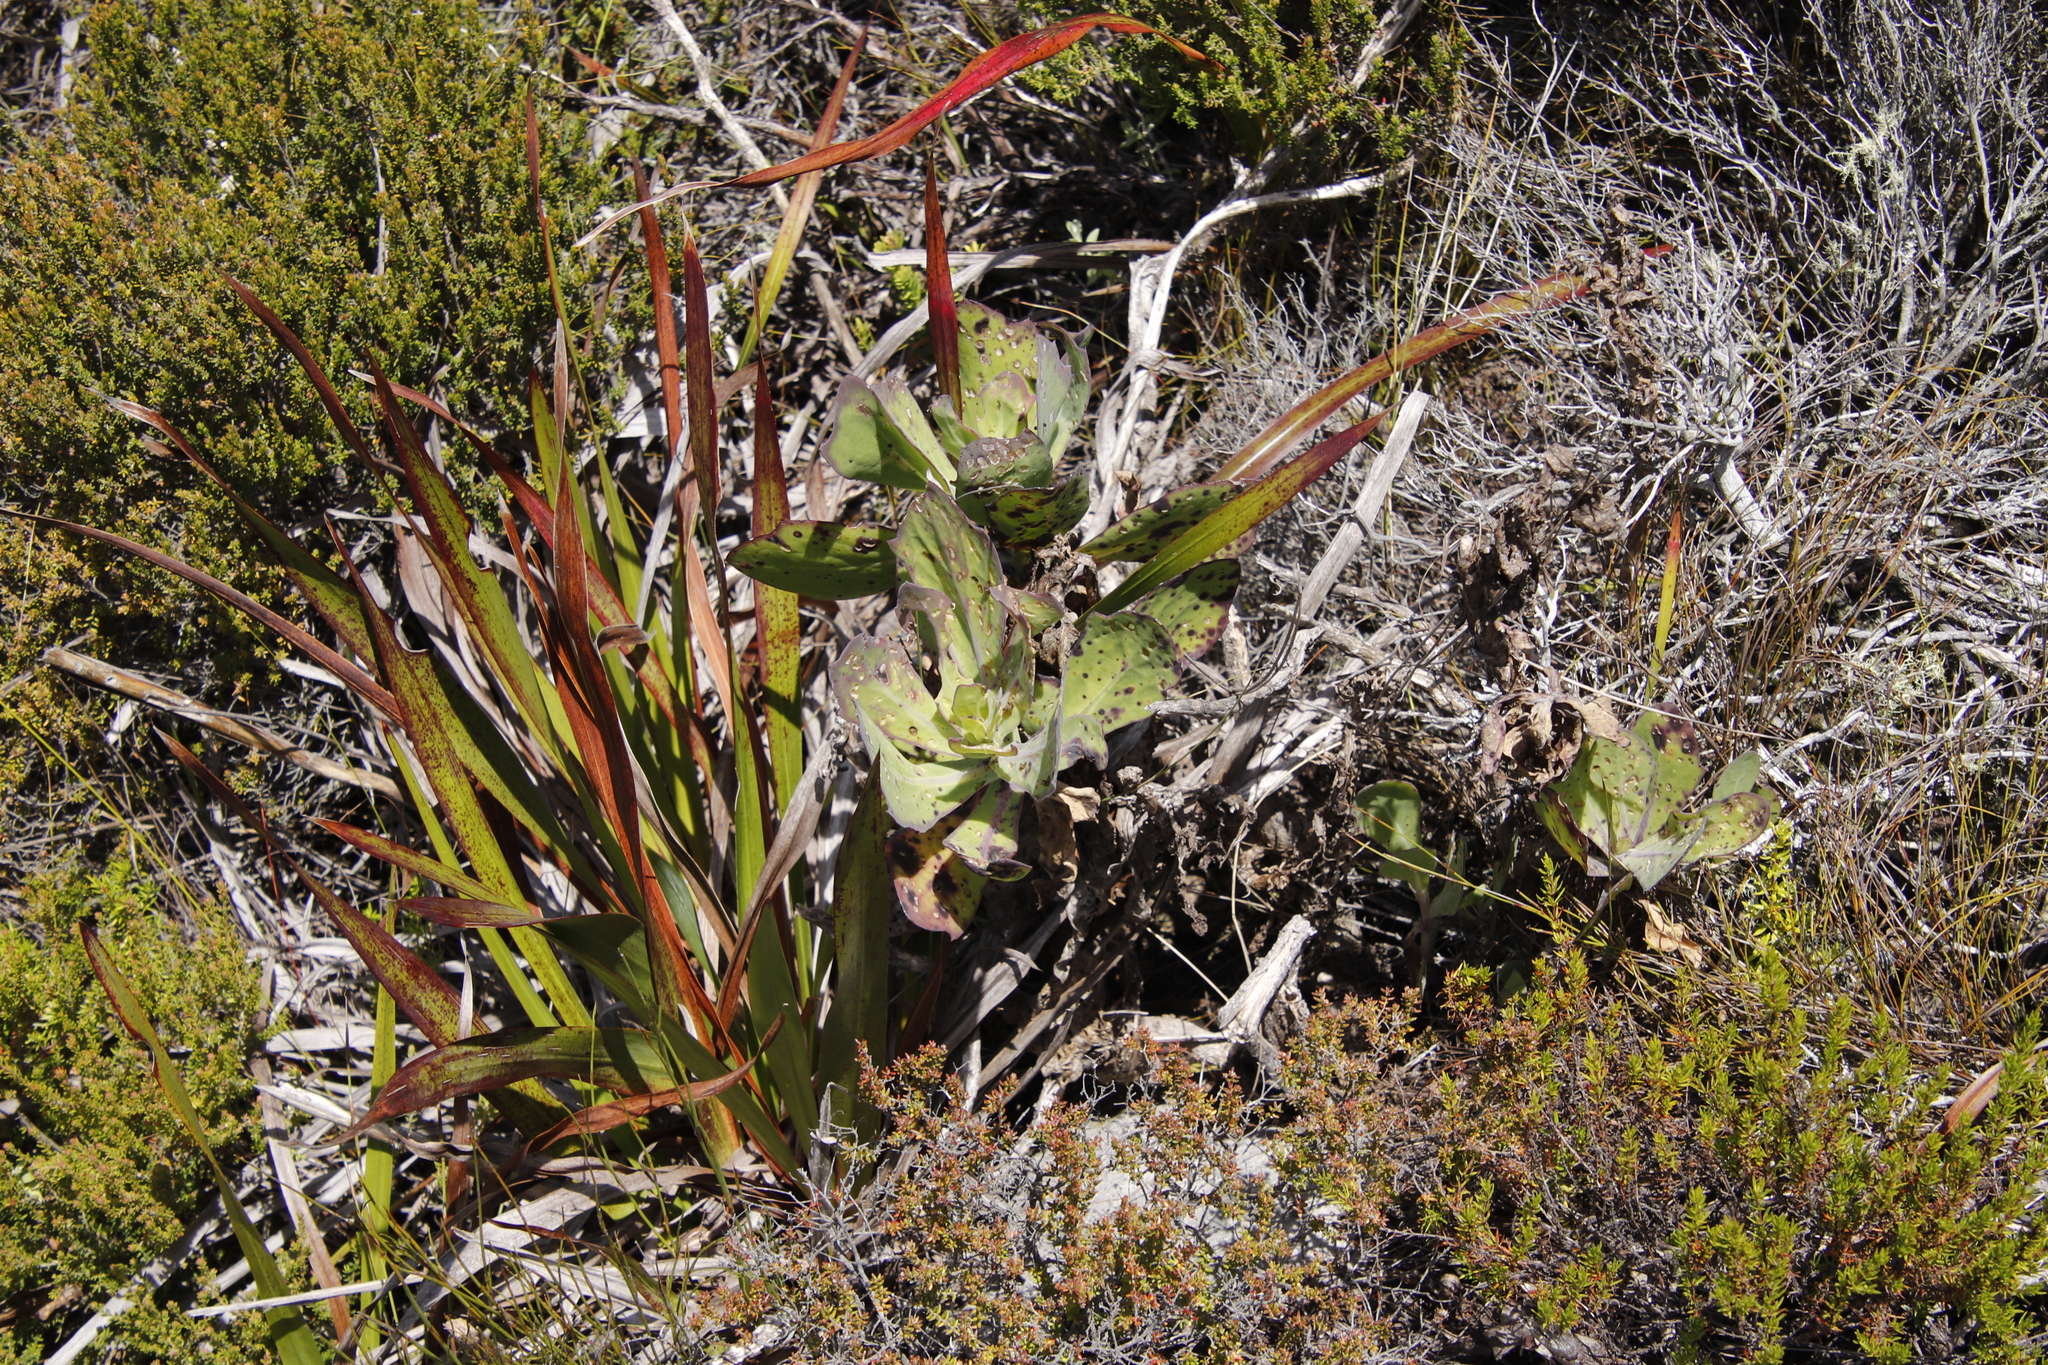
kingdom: Plantae
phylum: Tracheophyta
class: Magnoliopsida
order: Asterales
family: Asteraceae
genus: Othonna
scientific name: Othonna quinquedentata
